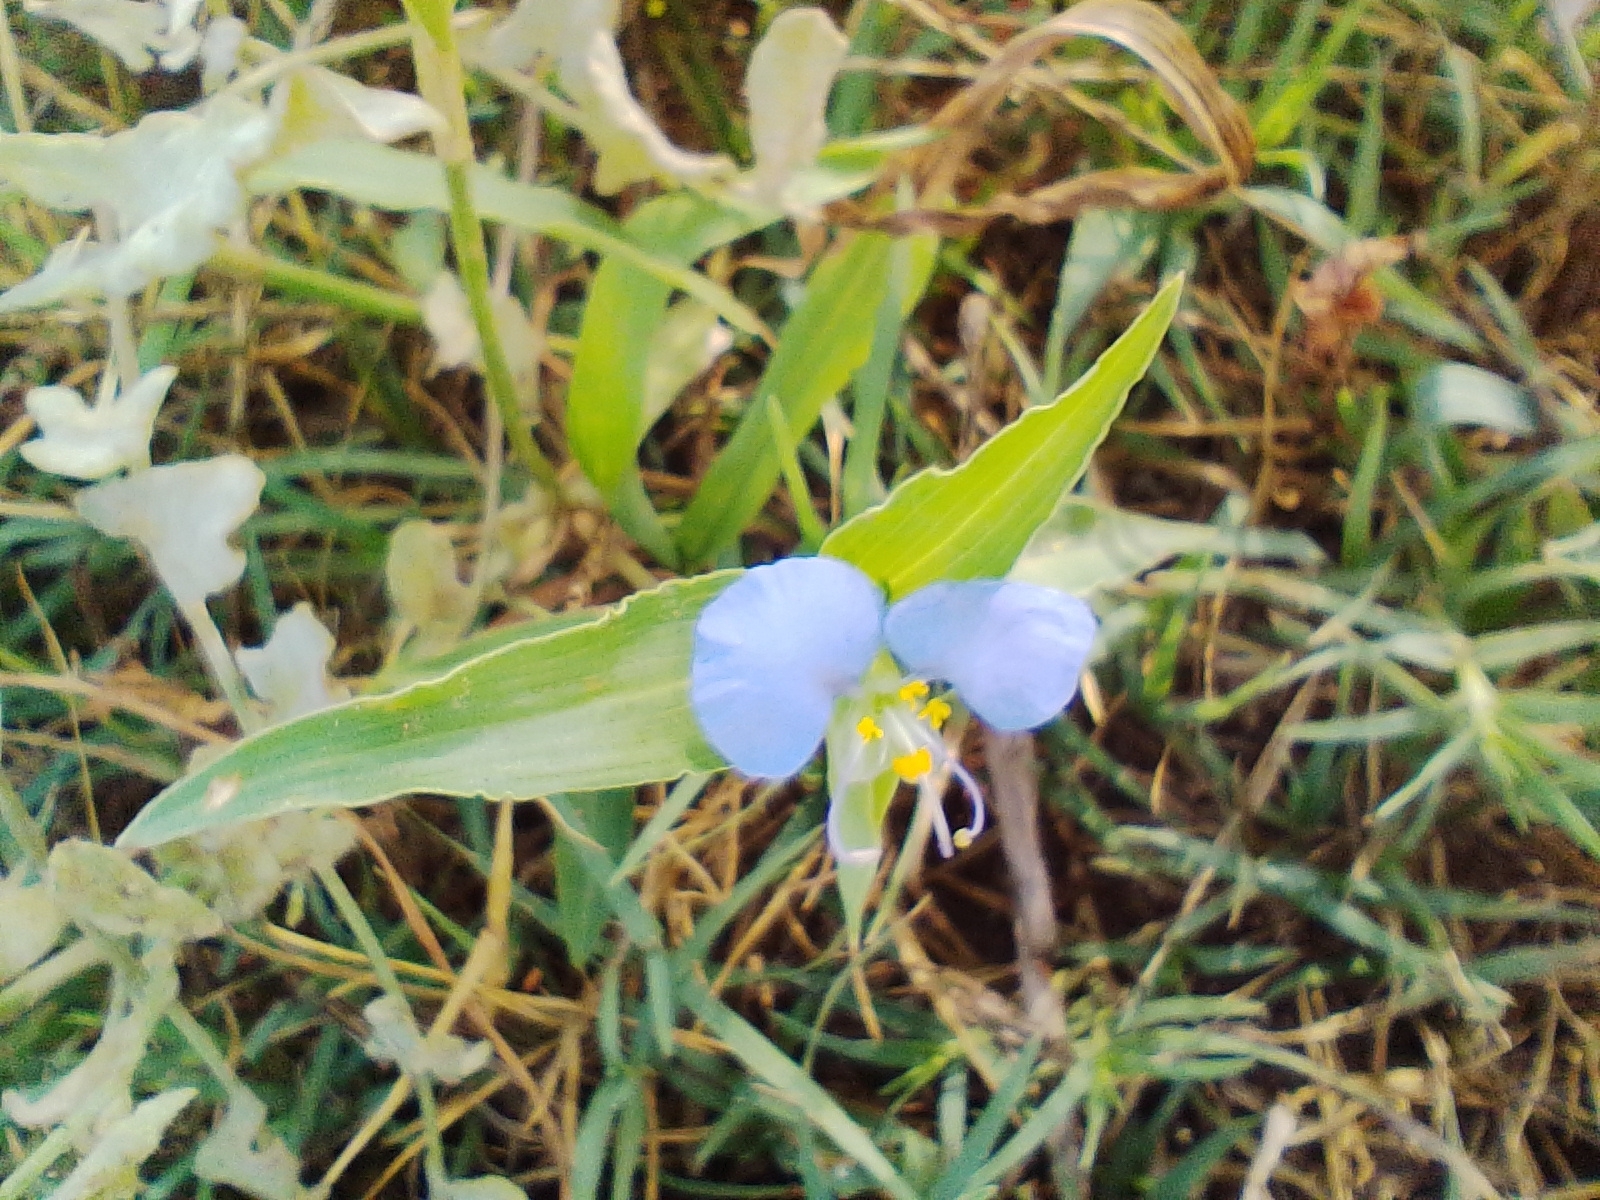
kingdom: Plantae
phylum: Tracheophyta
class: Liliopsida
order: Commelinales
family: Commelinaceae
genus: Commelina
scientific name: Commelina erecta
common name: Blousel blommetjie
